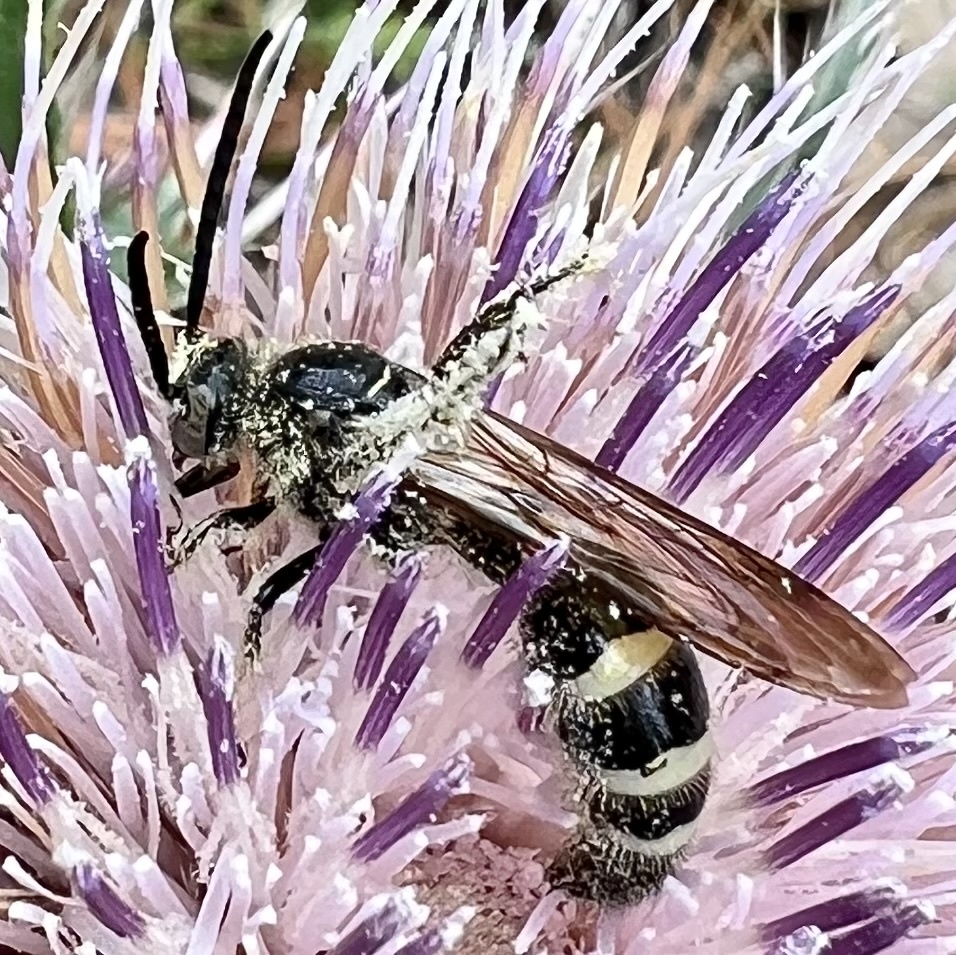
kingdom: Animalia
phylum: Arthropoda
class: Insecta
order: Hymenoptera
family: Scoliidae
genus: Dielis
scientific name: Dielis
